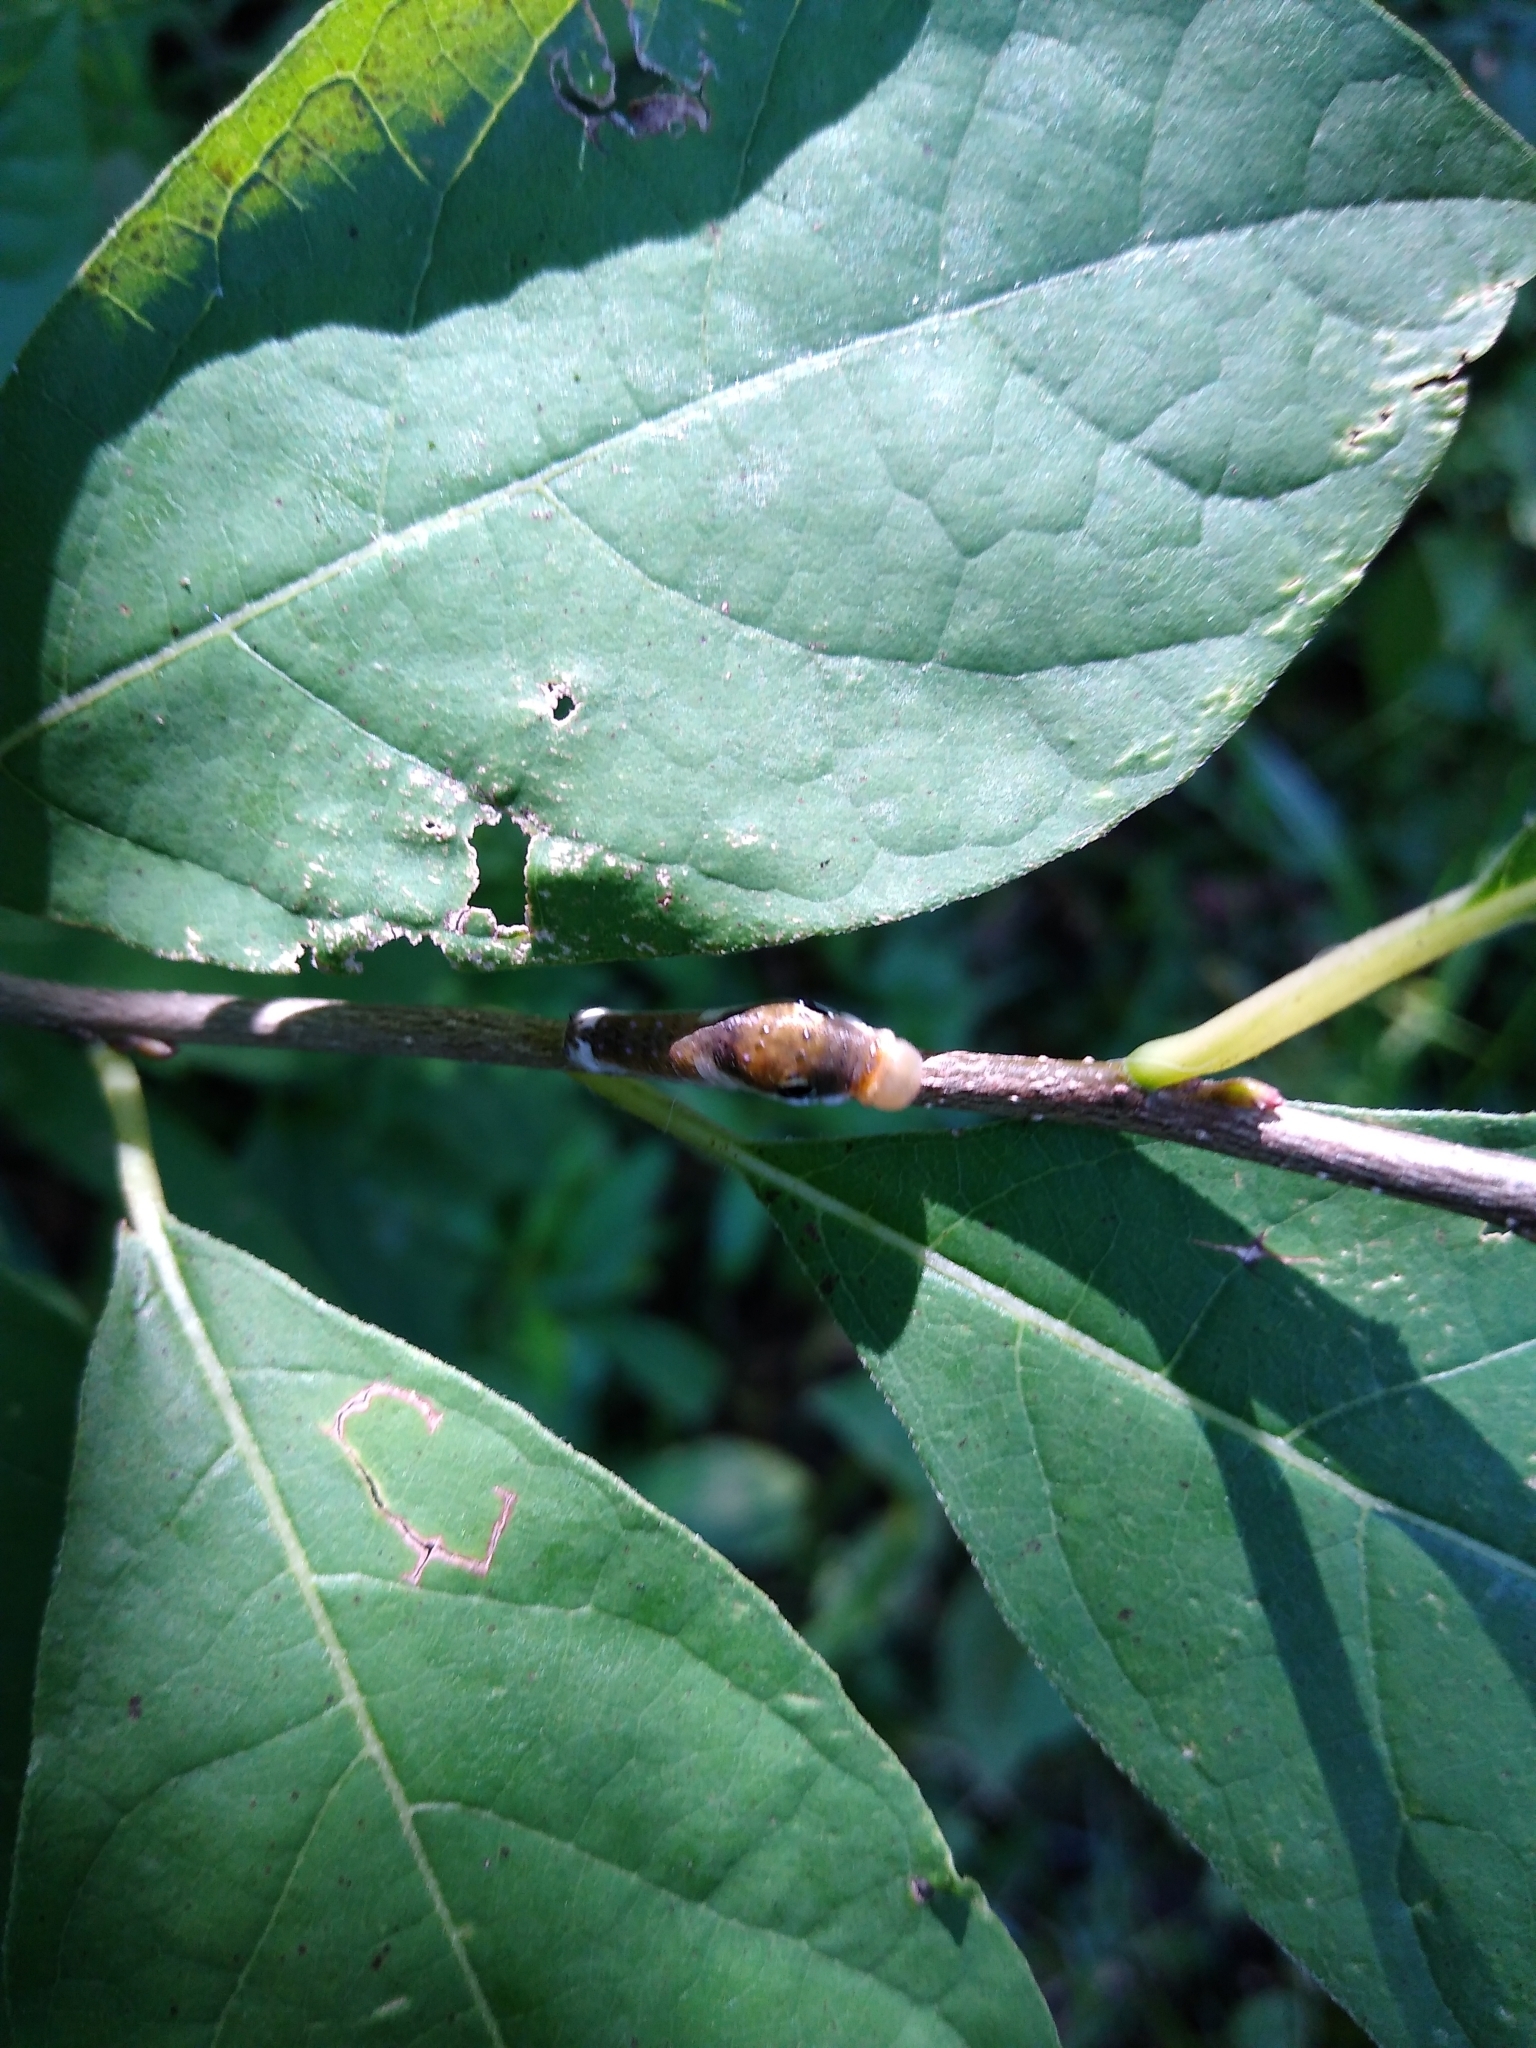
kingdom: Animalia
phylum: Arthropoda
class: Insecta
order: Lepidoptera
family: Papilionidae
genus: Papilio
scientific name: Papilio troilus
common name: Spicebush swallowtail
